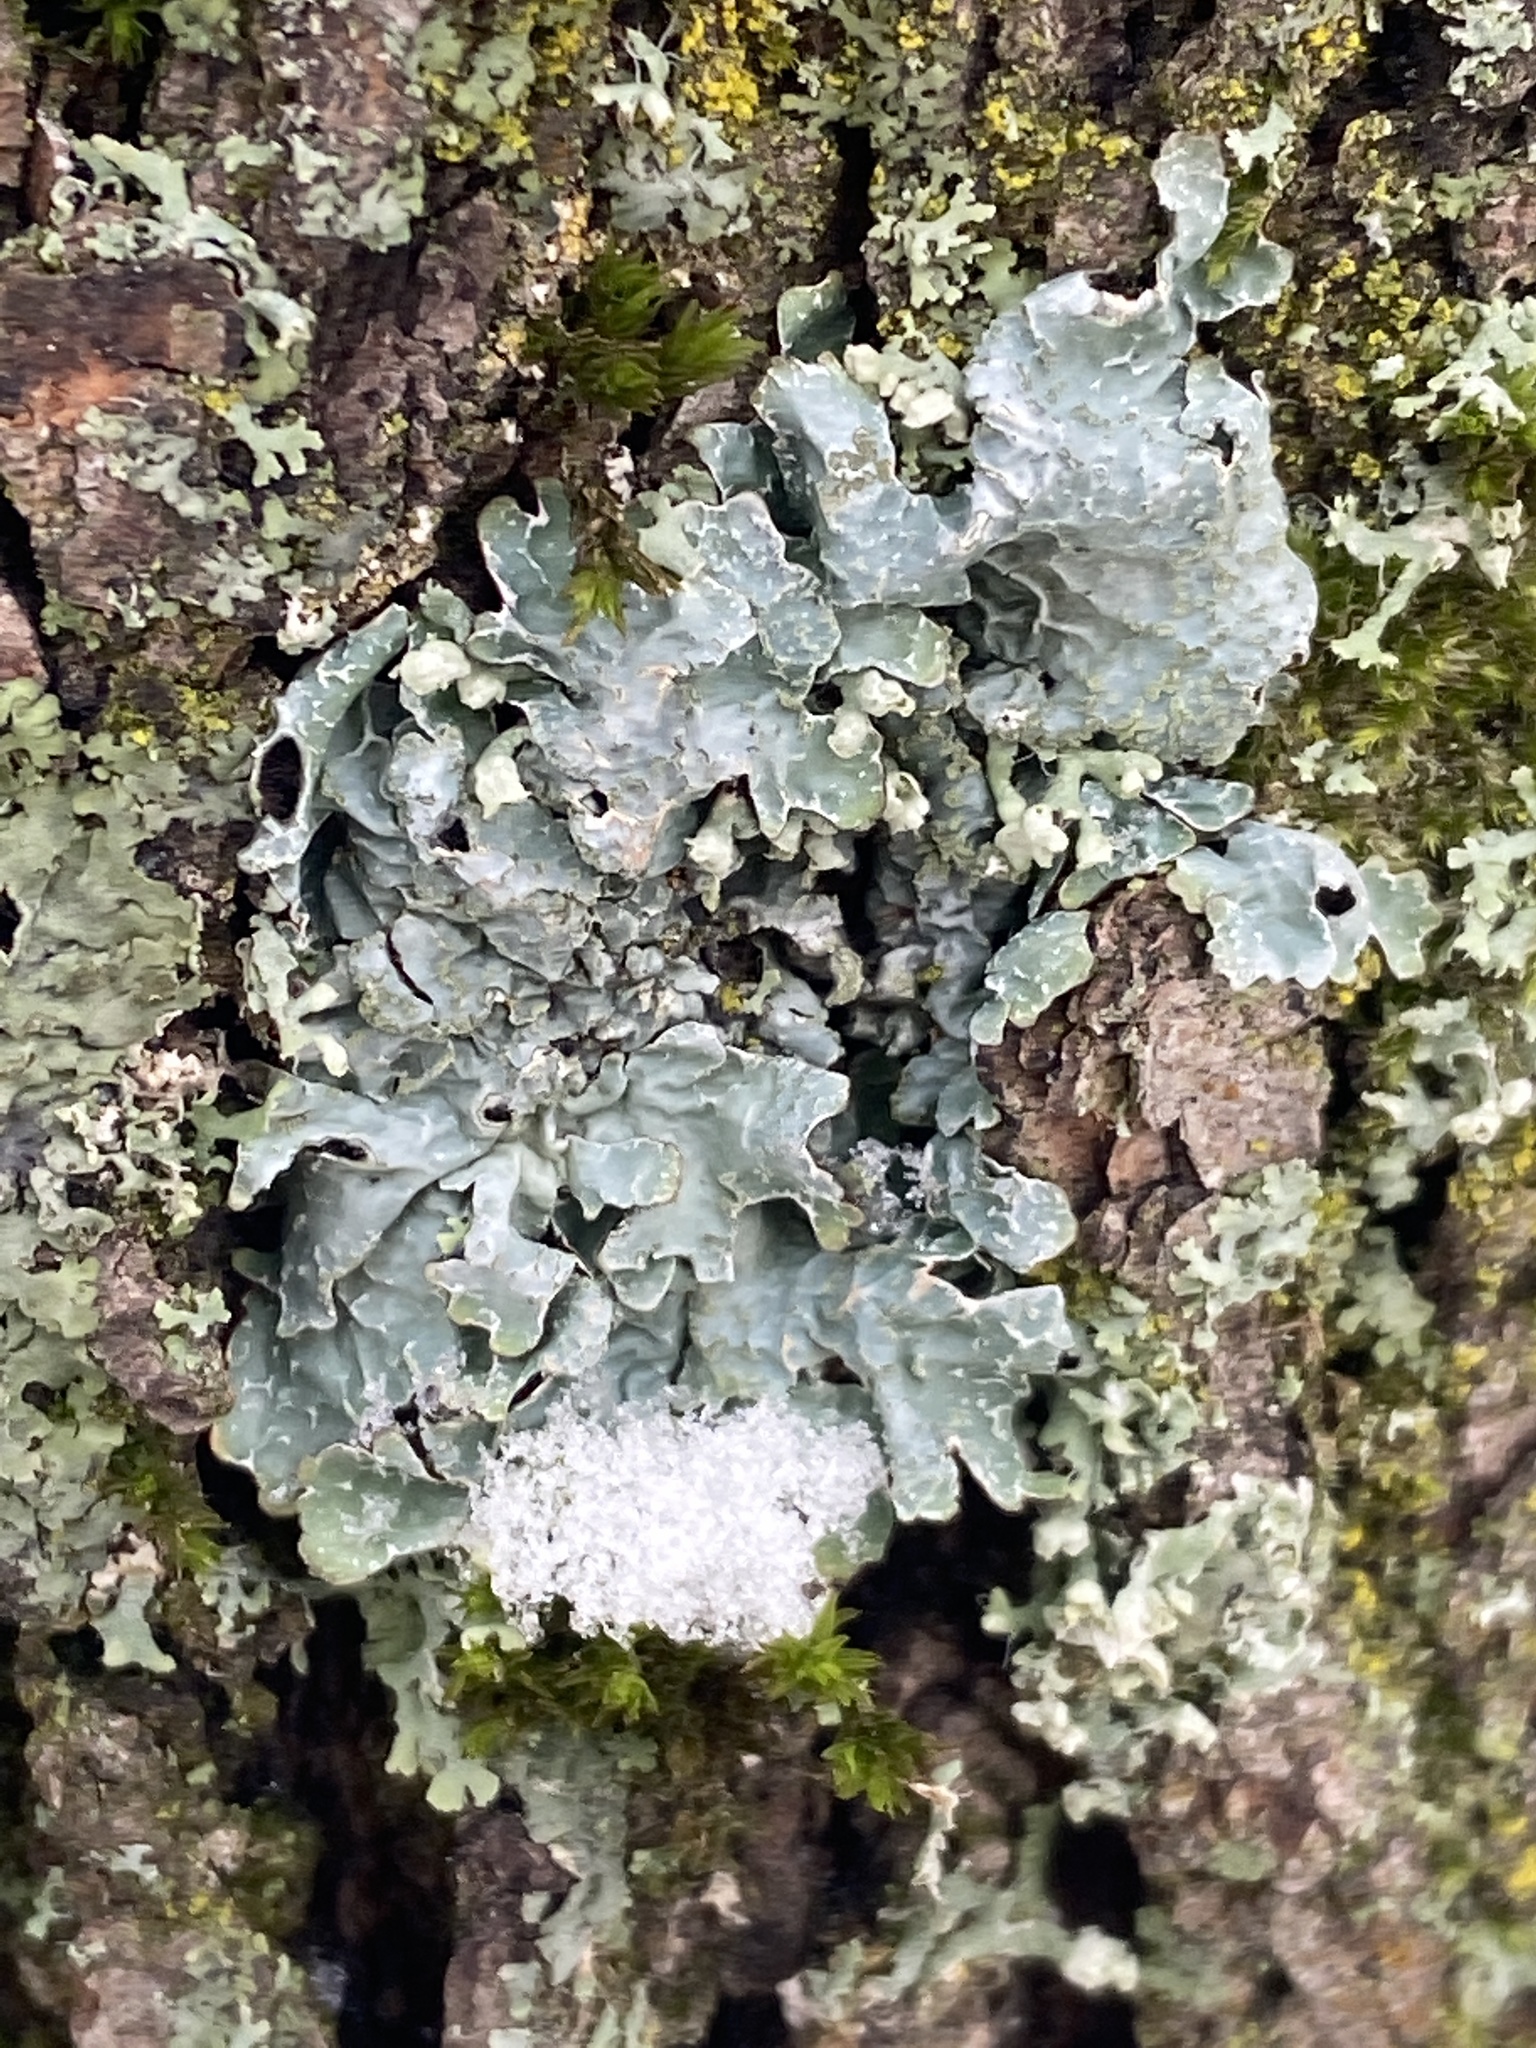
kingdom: Fungi
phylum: Ascomycota
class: Lecanoromycetes
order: Lecanorales
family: Parmeliaceae
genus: Parmelia
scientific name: Parmelia sulcata
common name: Netted shield lichen
